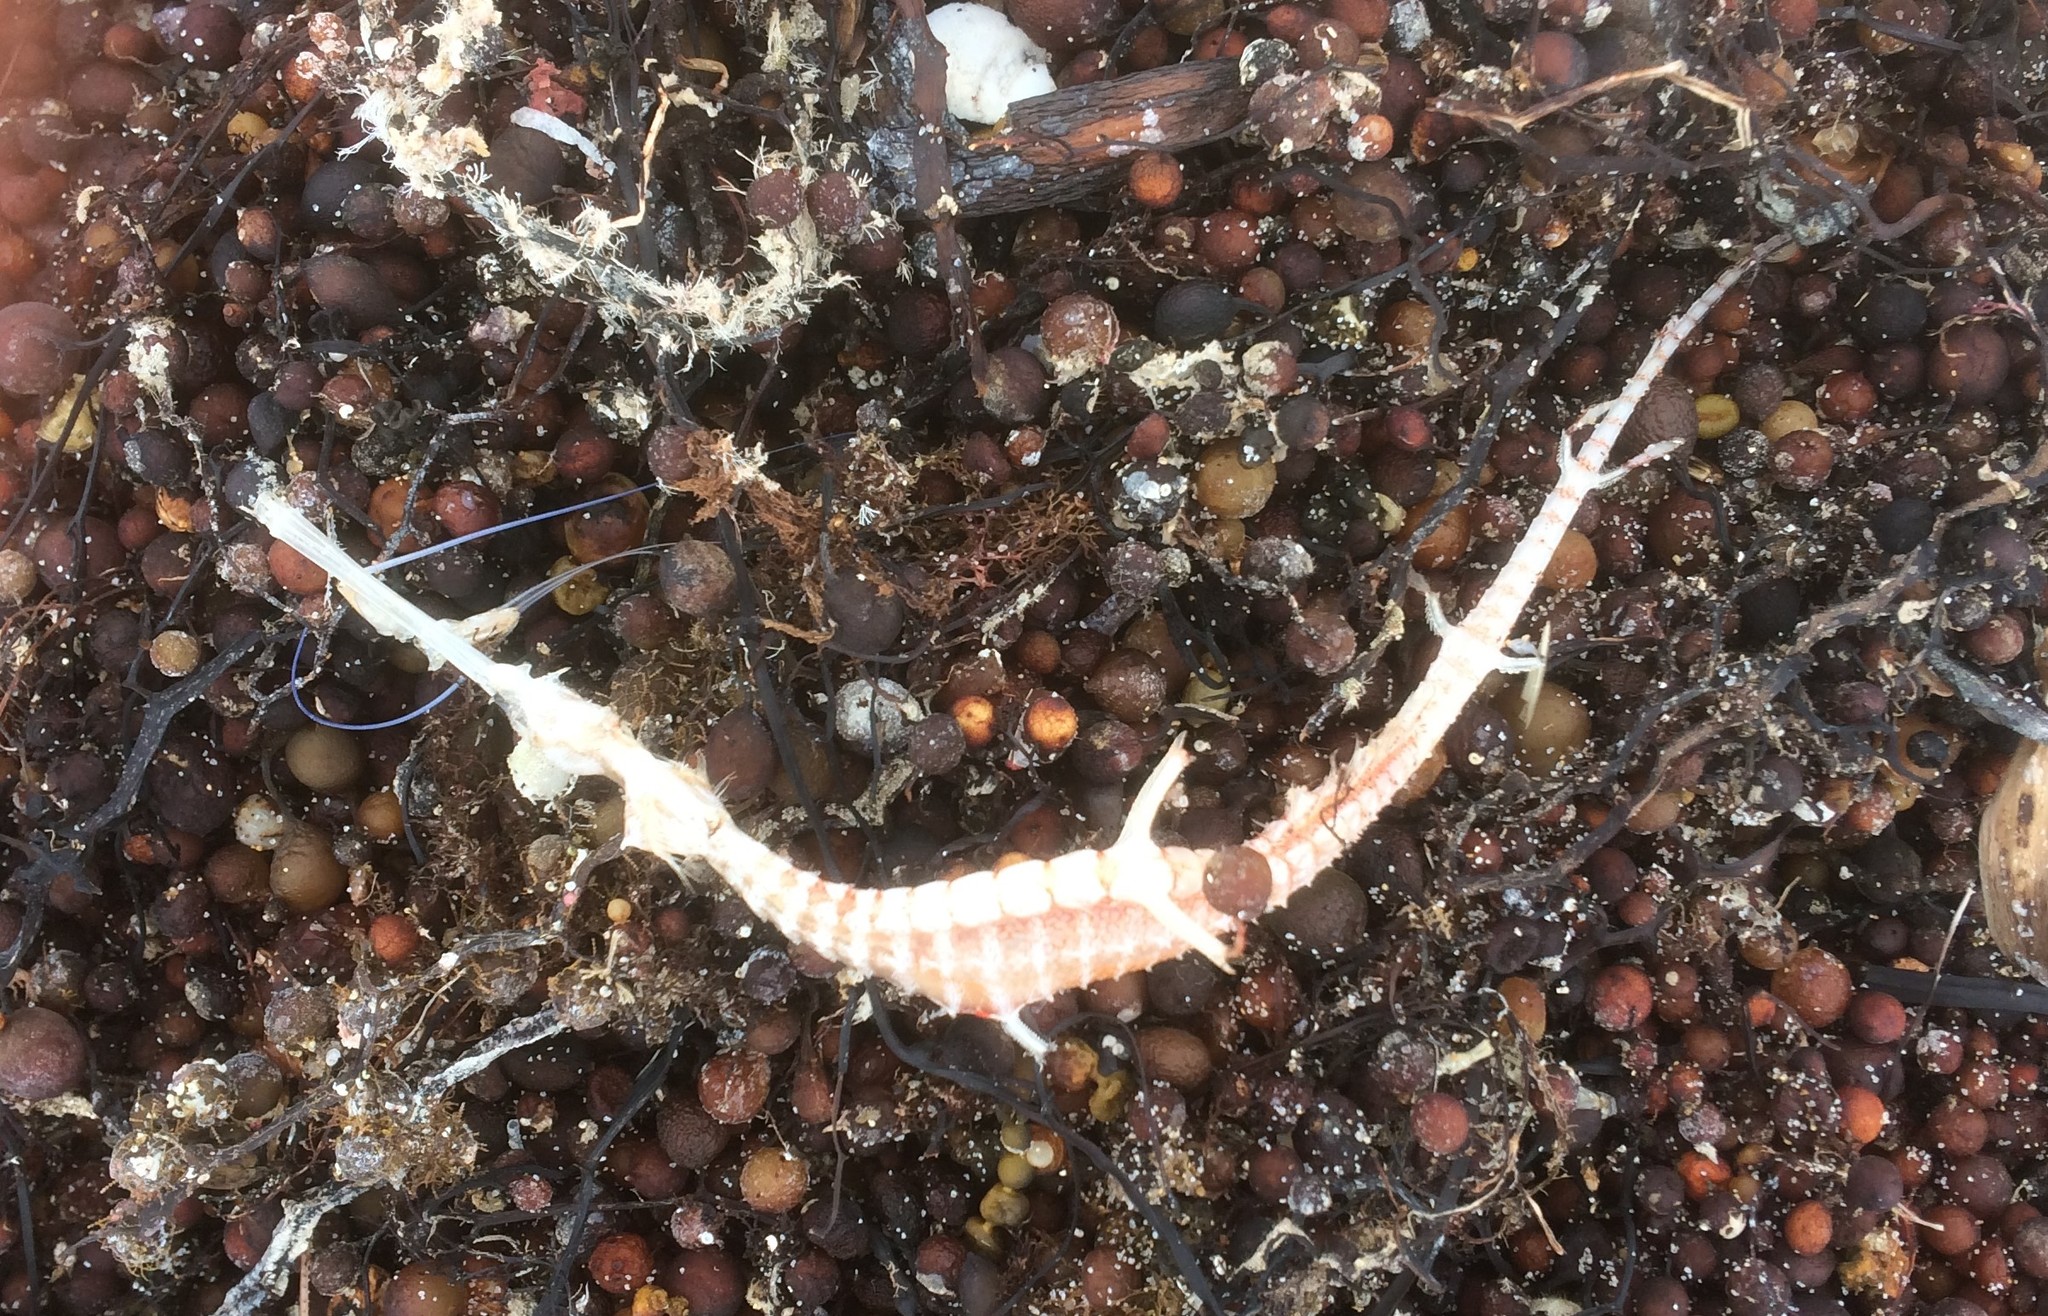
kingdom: Animalia
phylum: Chordata
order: Syngnathiformes
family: Syngnathidae
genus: Phyllopteryx
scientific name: Phyllopteryx taeniolatus
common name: Common seadragon
